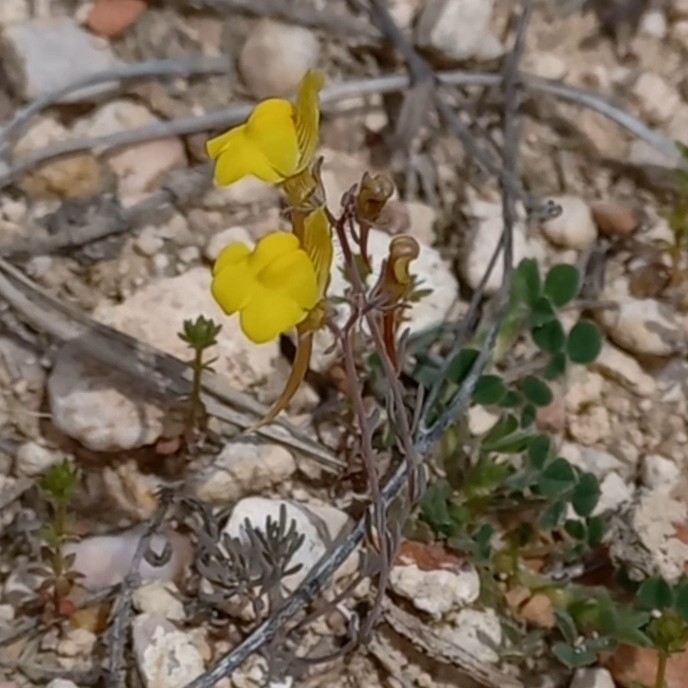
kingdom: Plantae
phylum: Tracheophyta
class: Magnoliopsida
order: Lamiales
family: Plantaginaceae
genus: Linaria
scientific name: Linaria oblongifolia
